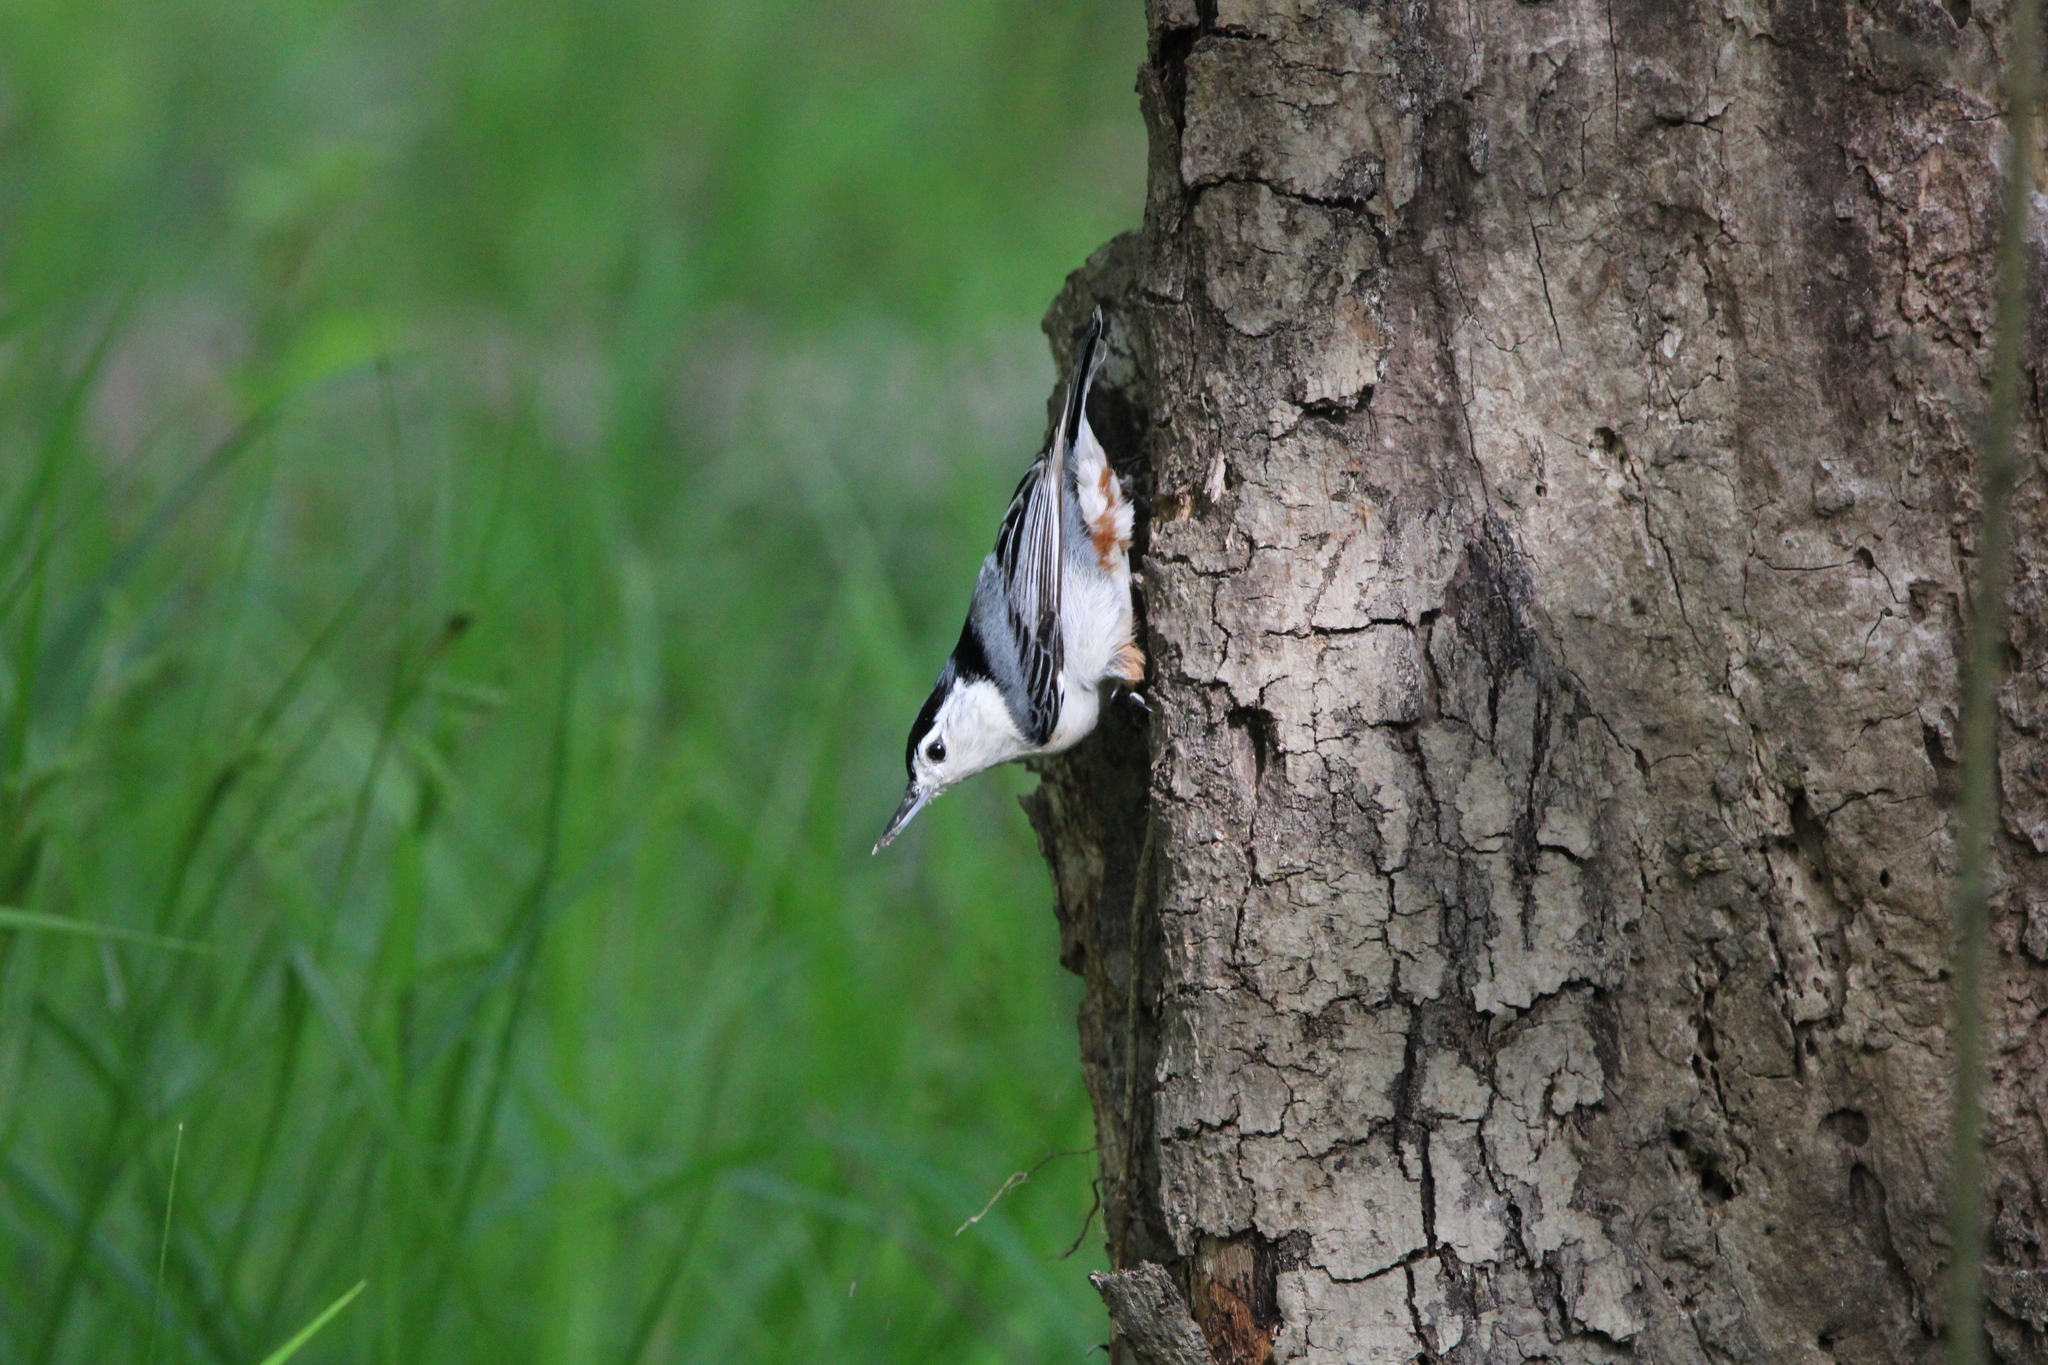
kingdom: Animalia
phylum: Chordata
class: Aves
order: Passeriformes
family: Sittidae
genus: Sitta
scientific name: Sitta carolinensis
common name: White-breasted nuthatch
